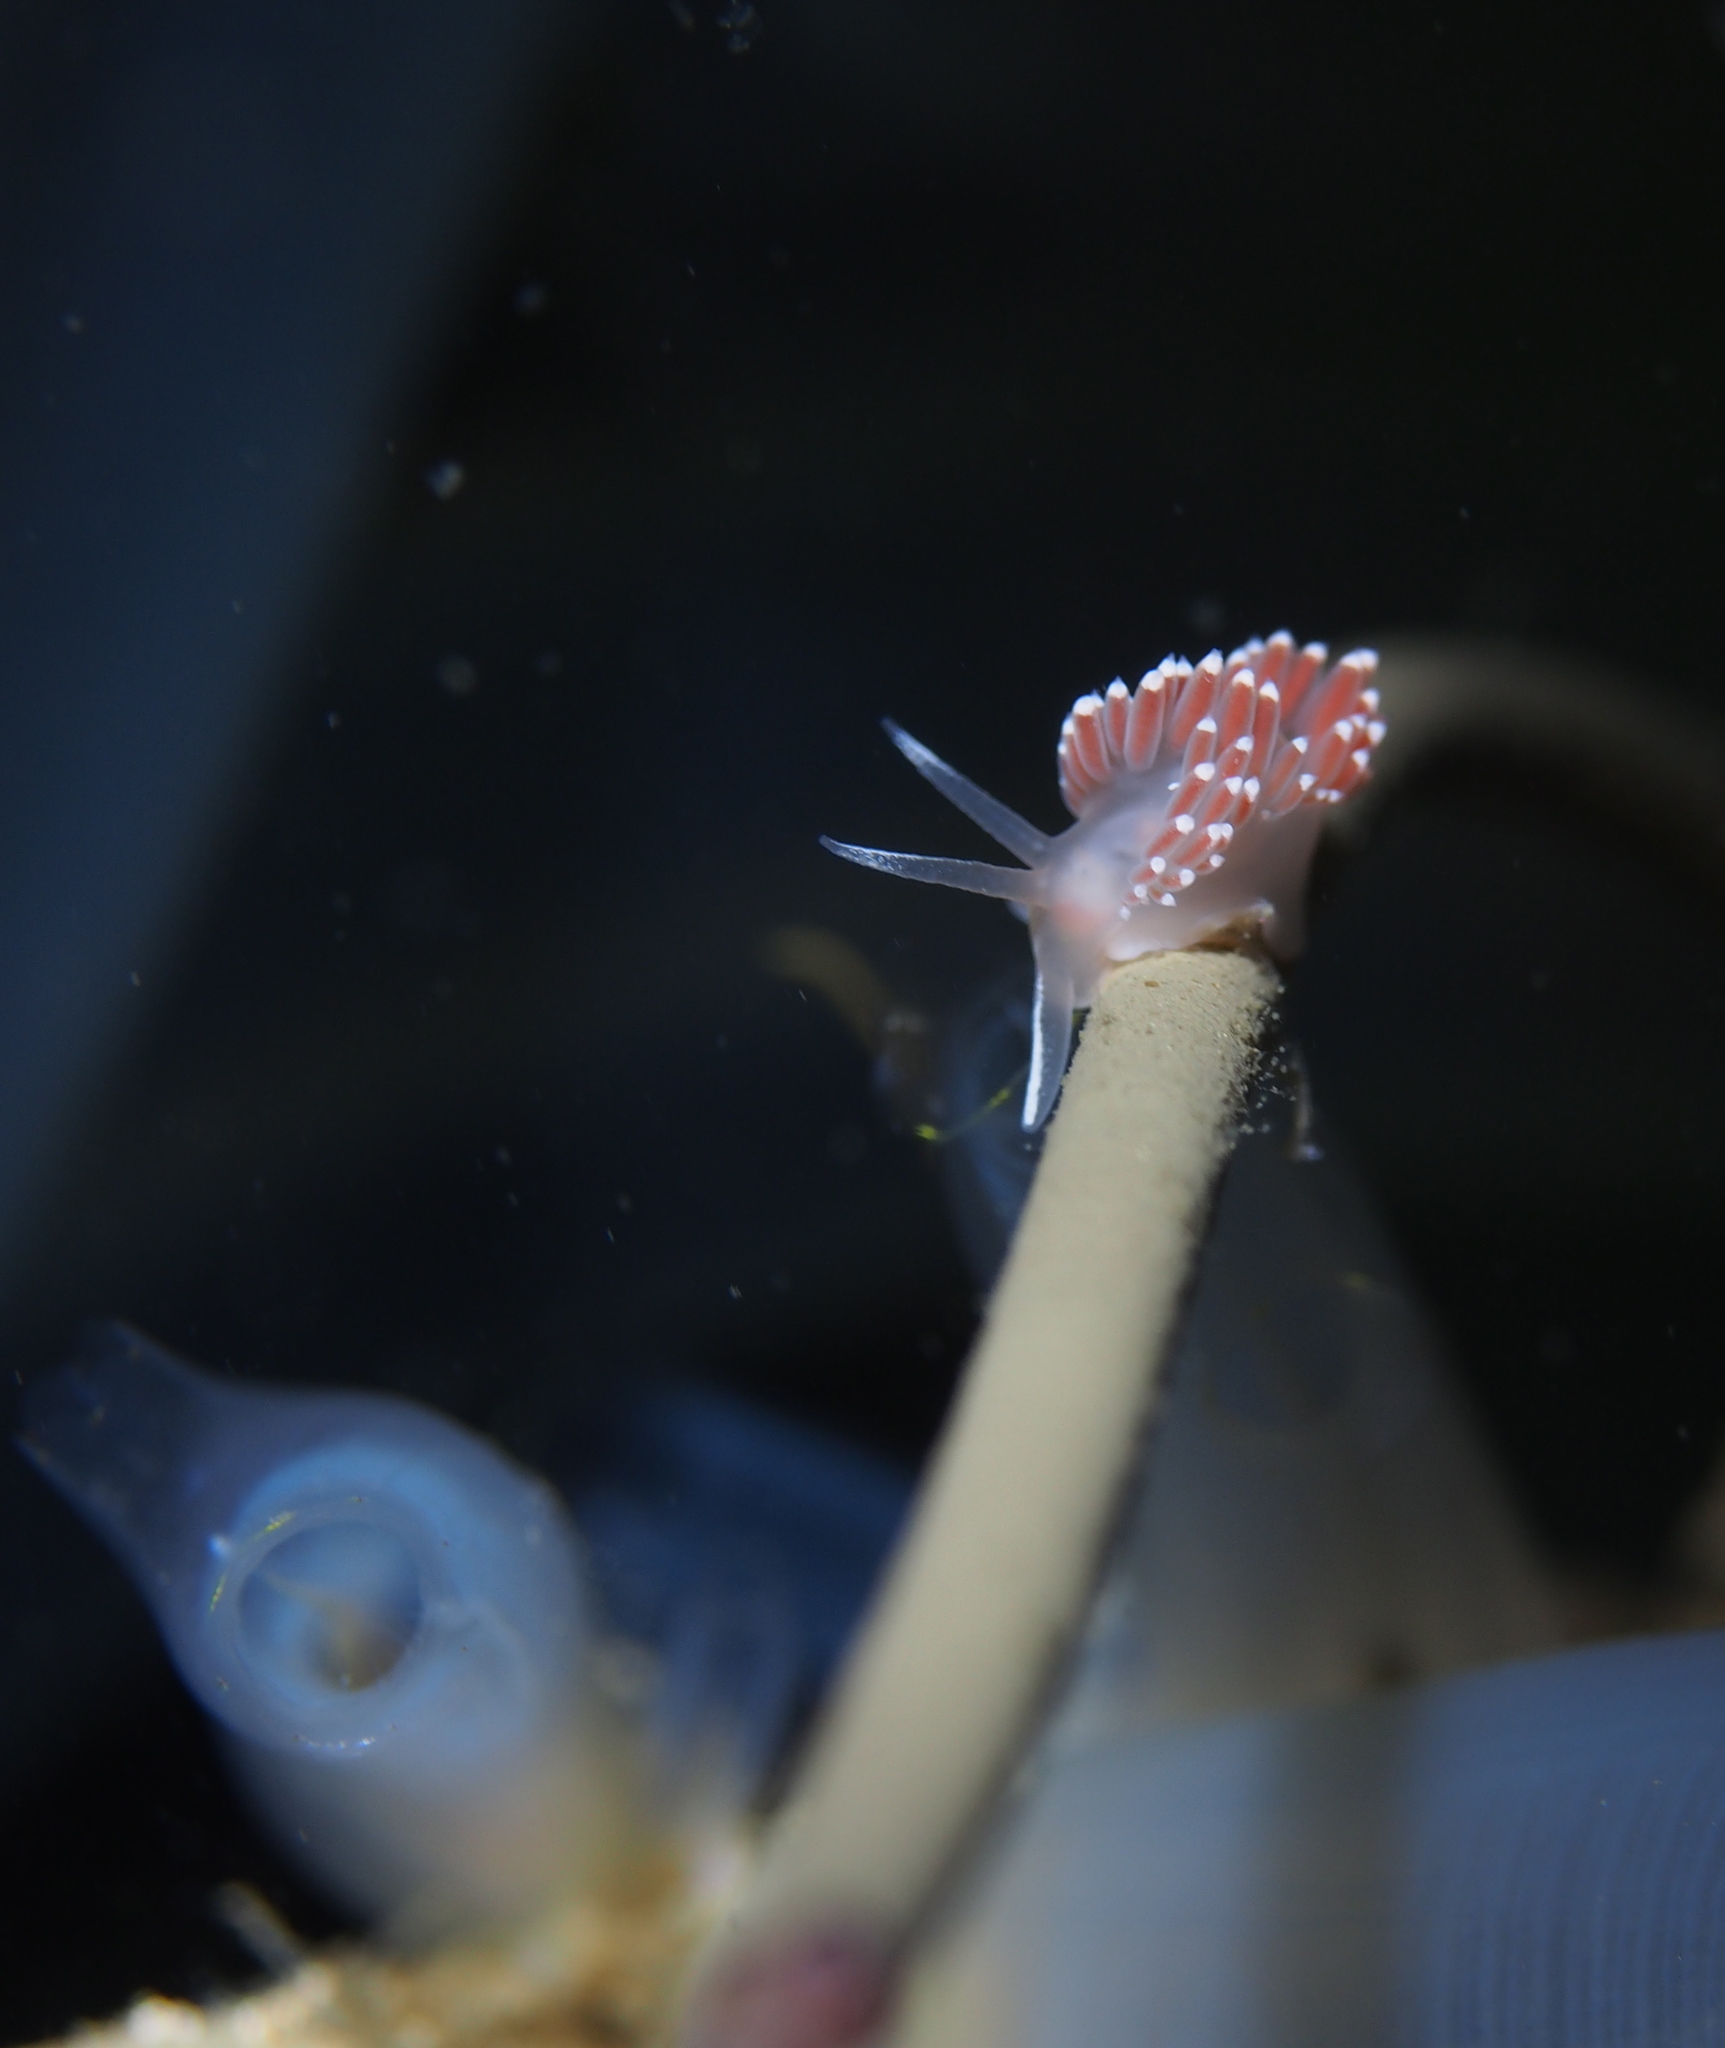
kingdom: Animalia
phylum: Mollusca
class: Gastropoda
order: Nudibranchia
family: Coryphellidae
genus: Coryphella
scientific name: Coryphella verrucosa
